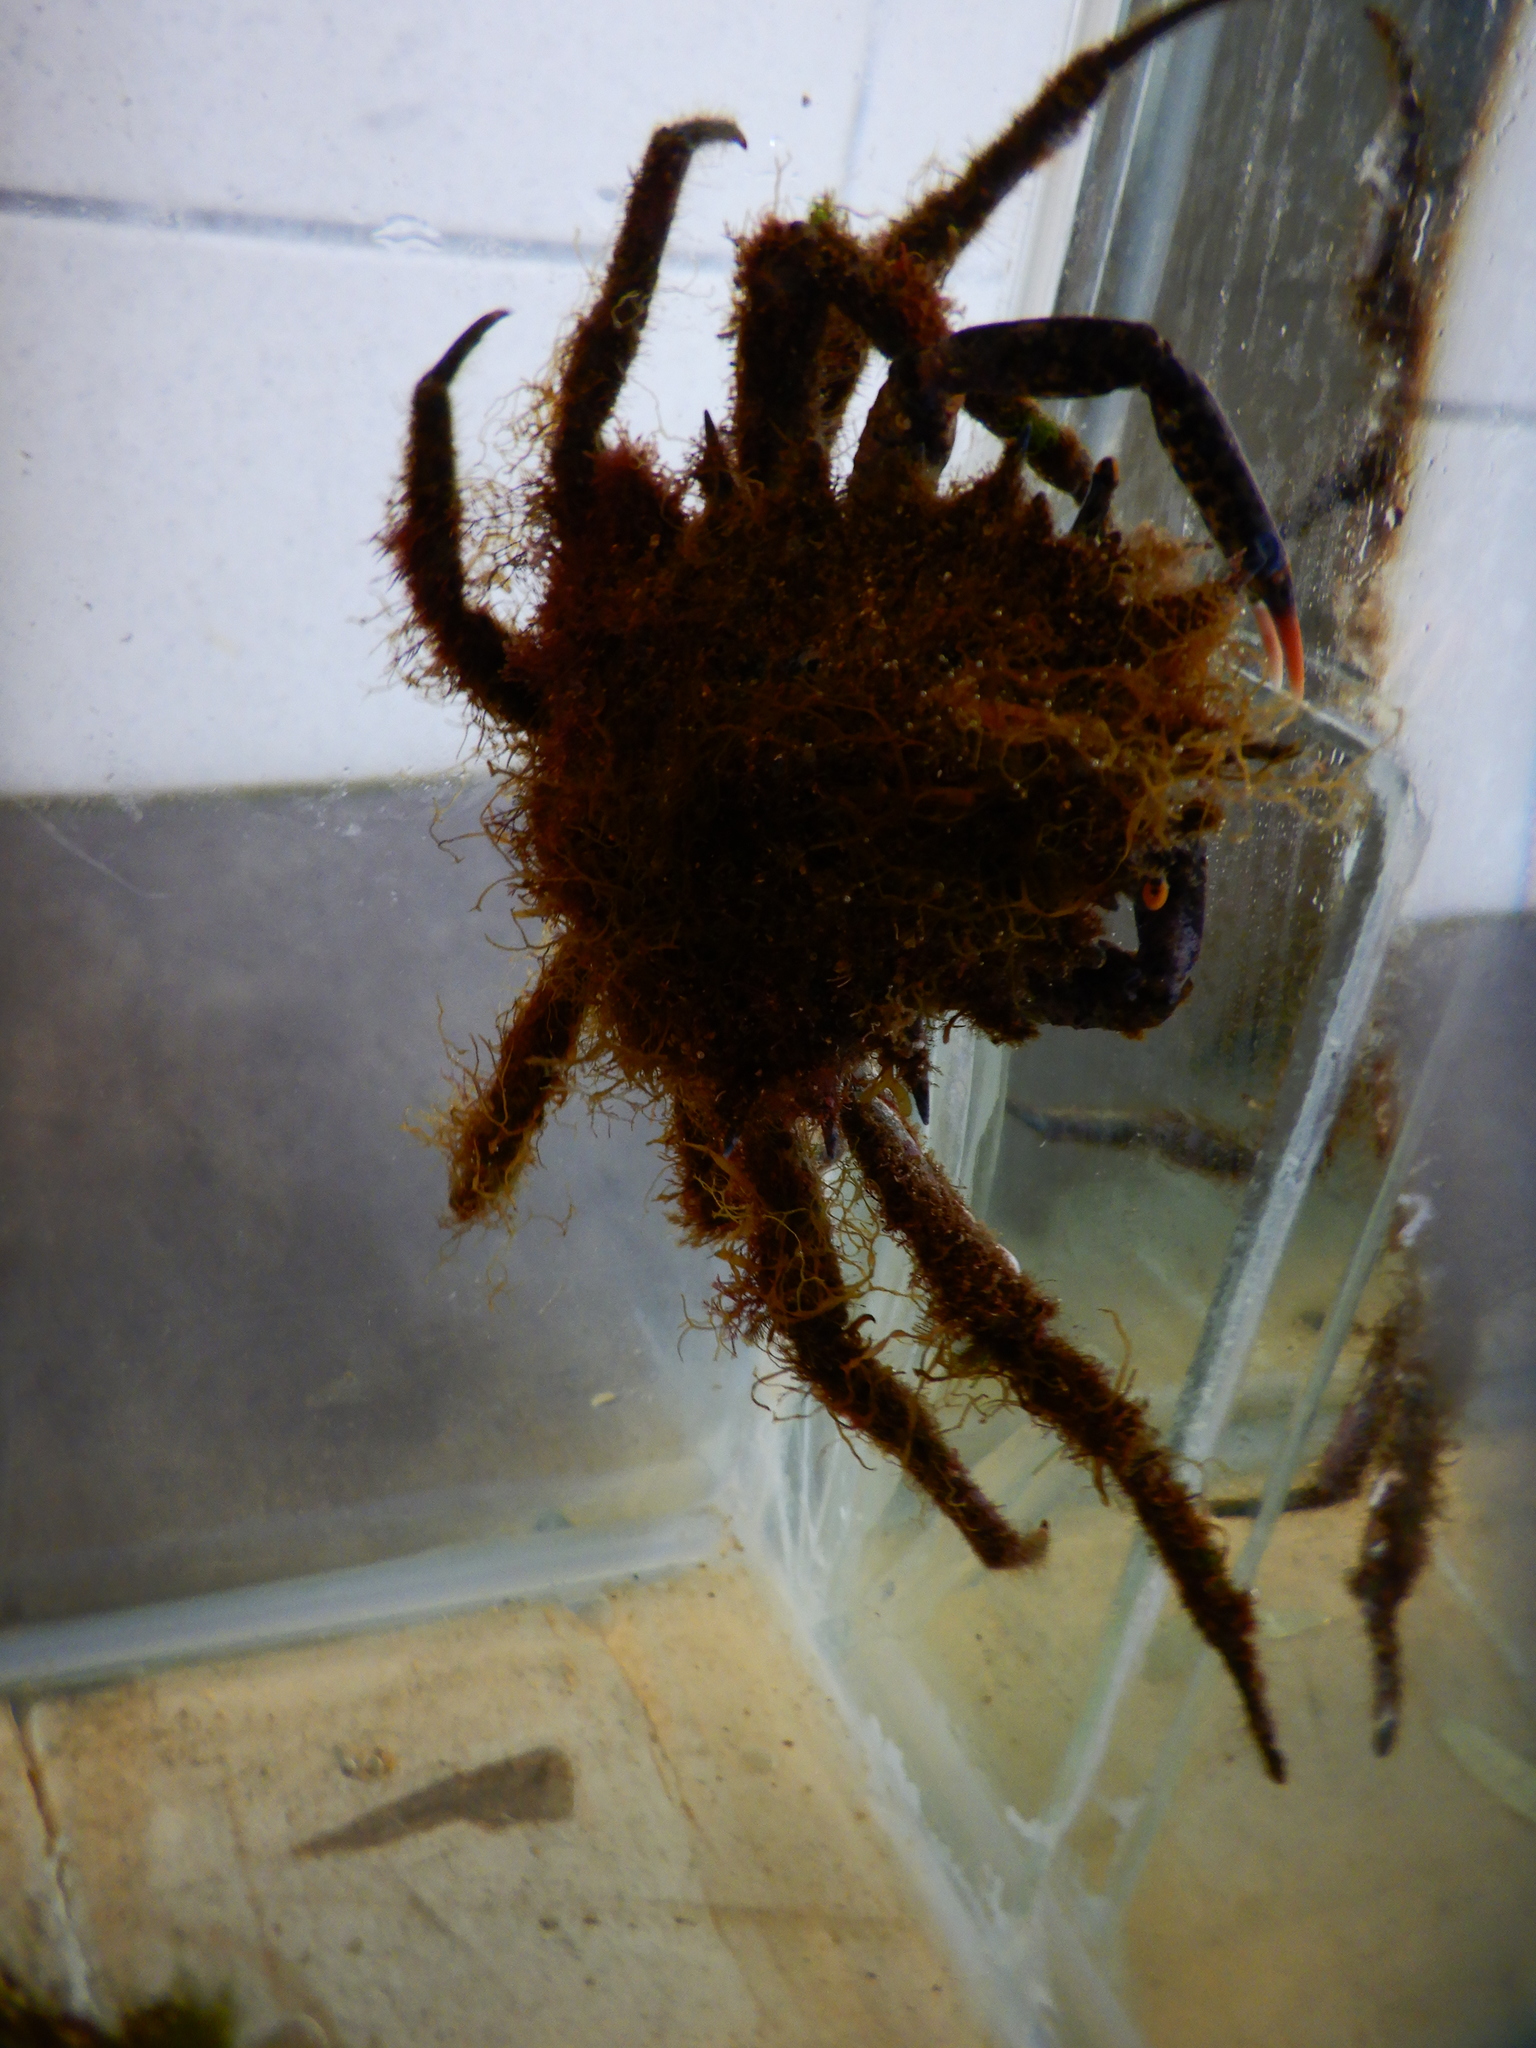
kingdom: Animalia
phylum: Arthropoda
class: Malacostraca
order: Decapoda
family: Majidae
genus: Maja
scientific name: Maja crispata
